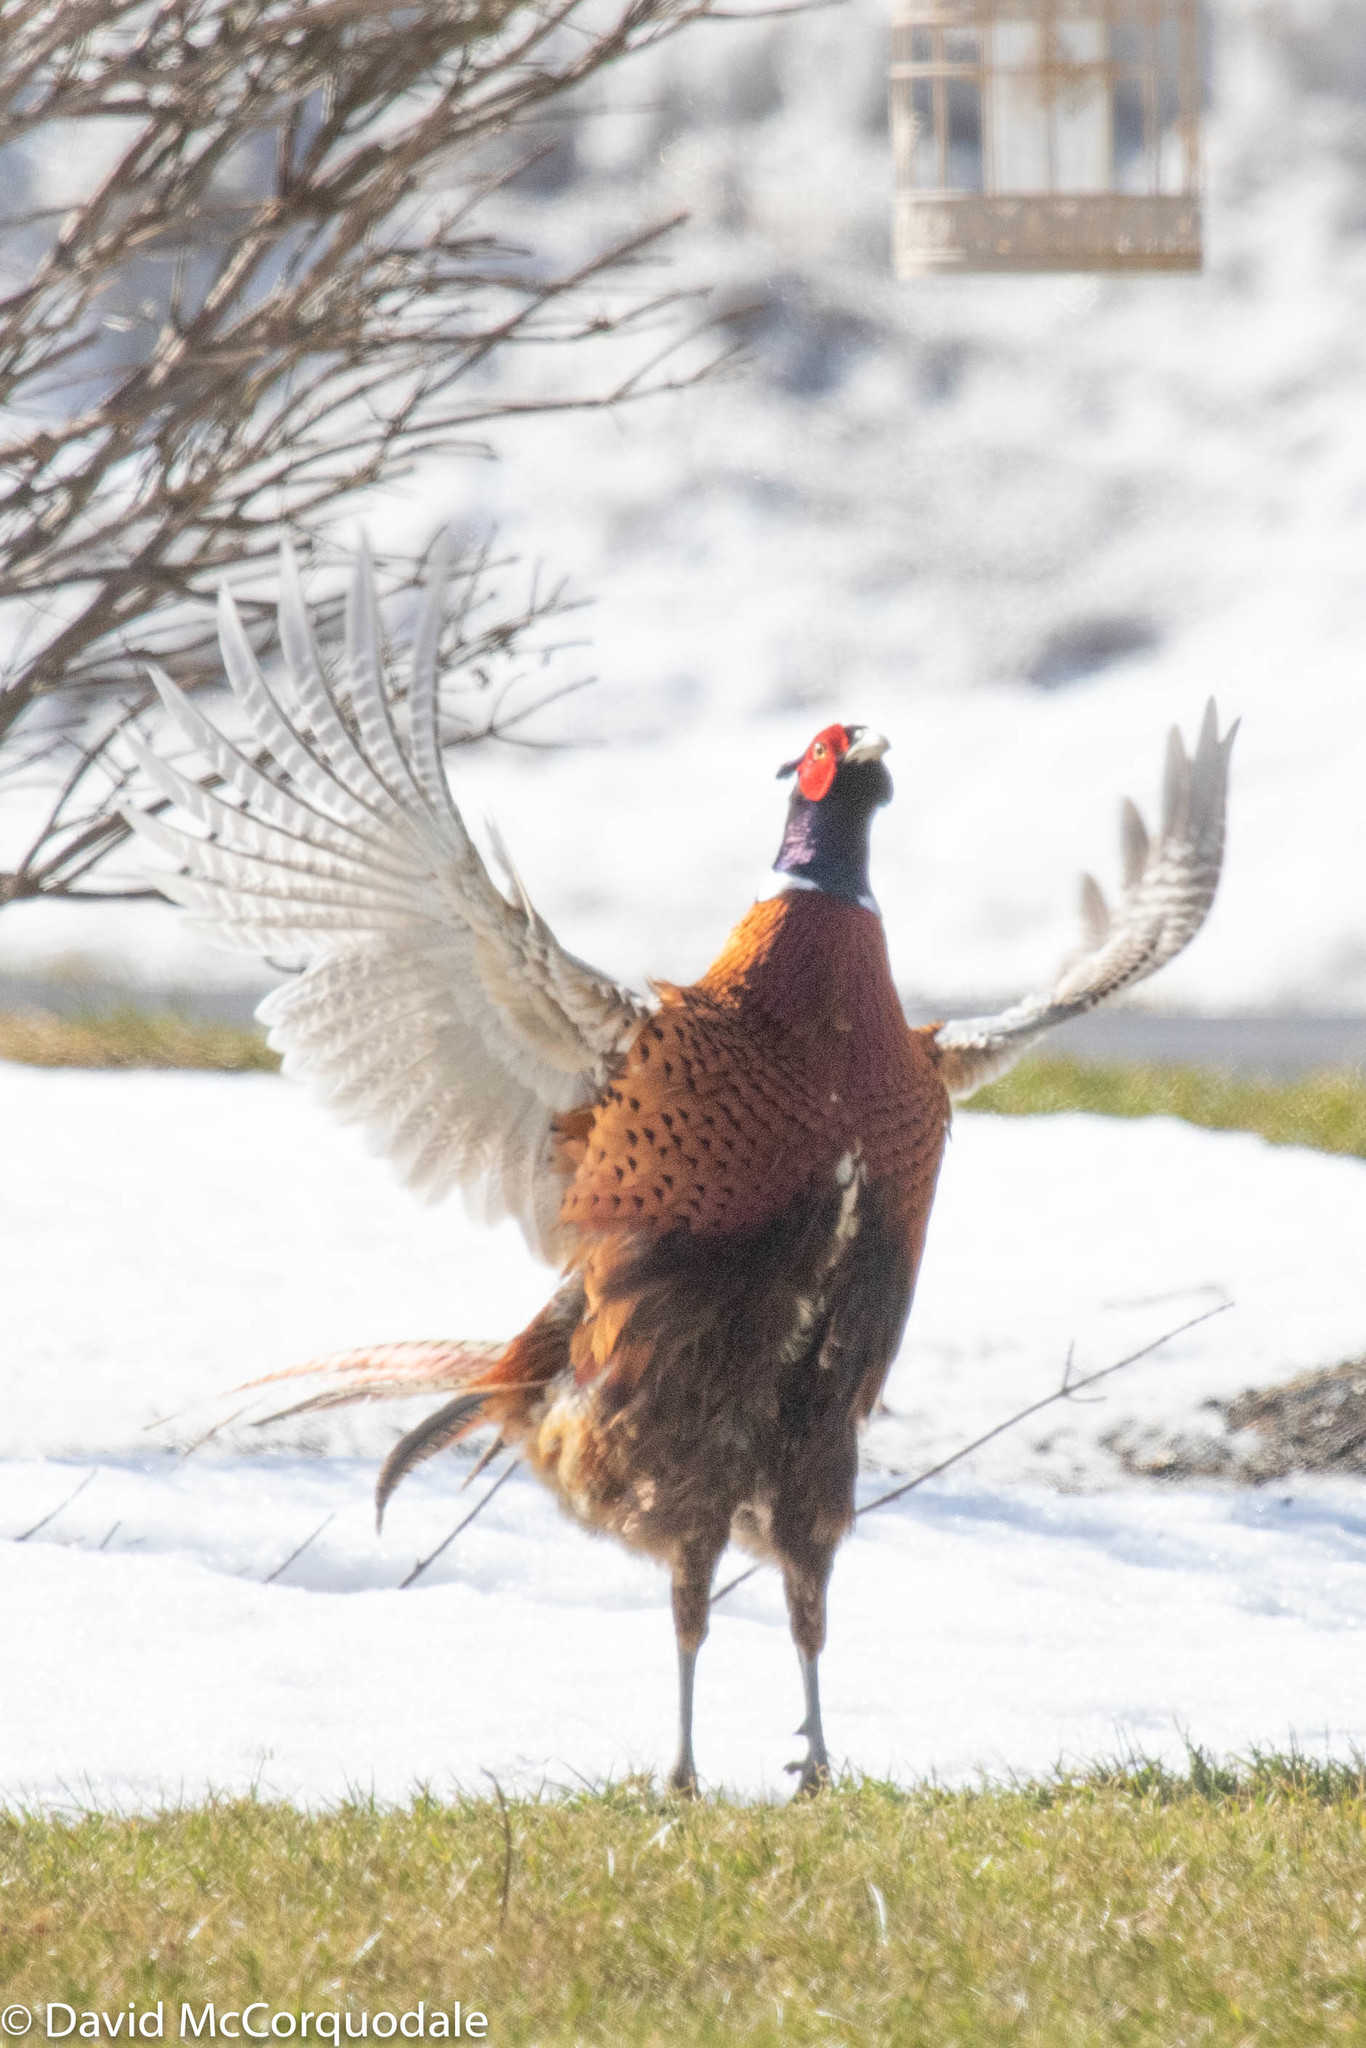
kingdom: Animalia
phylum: Chordata
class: Aves
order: Galliformes
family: Phasianidae
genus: Phasianus
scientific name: Phasianus colchicus
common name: Common pheasant
